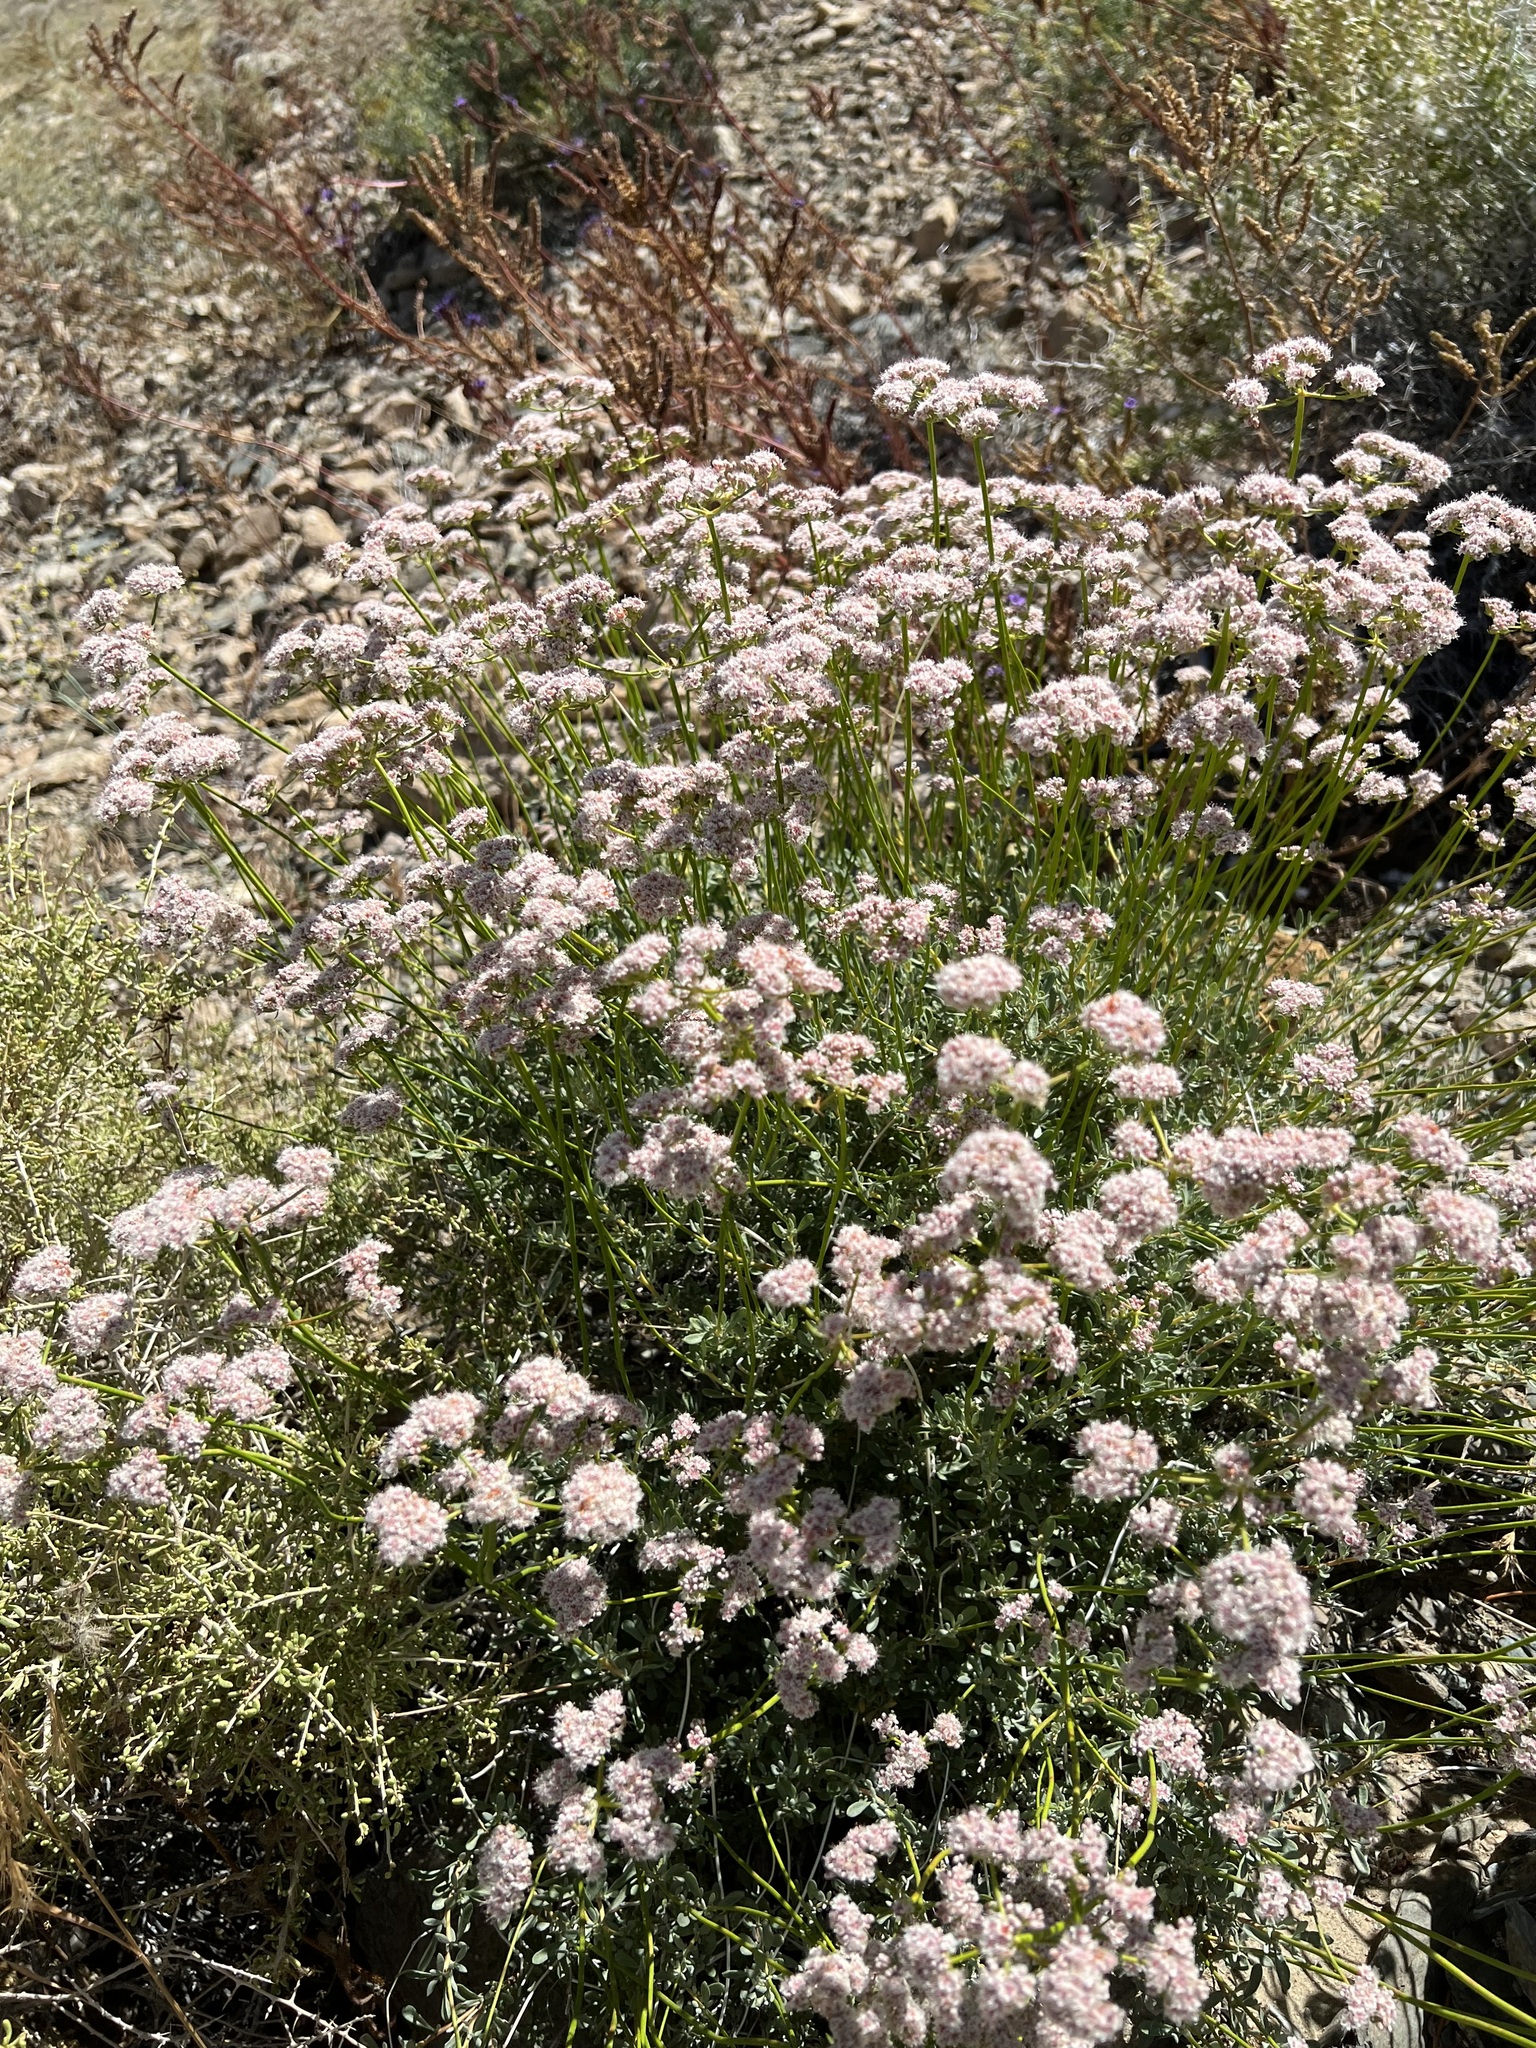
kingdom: Plantae
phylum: Tracheophyta
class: Magnoliopsida
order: Caryophyllales
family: Polygonaceae
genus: Eriogonum
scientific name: Eriogonum fasciculatum
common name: California wild buckwheat
